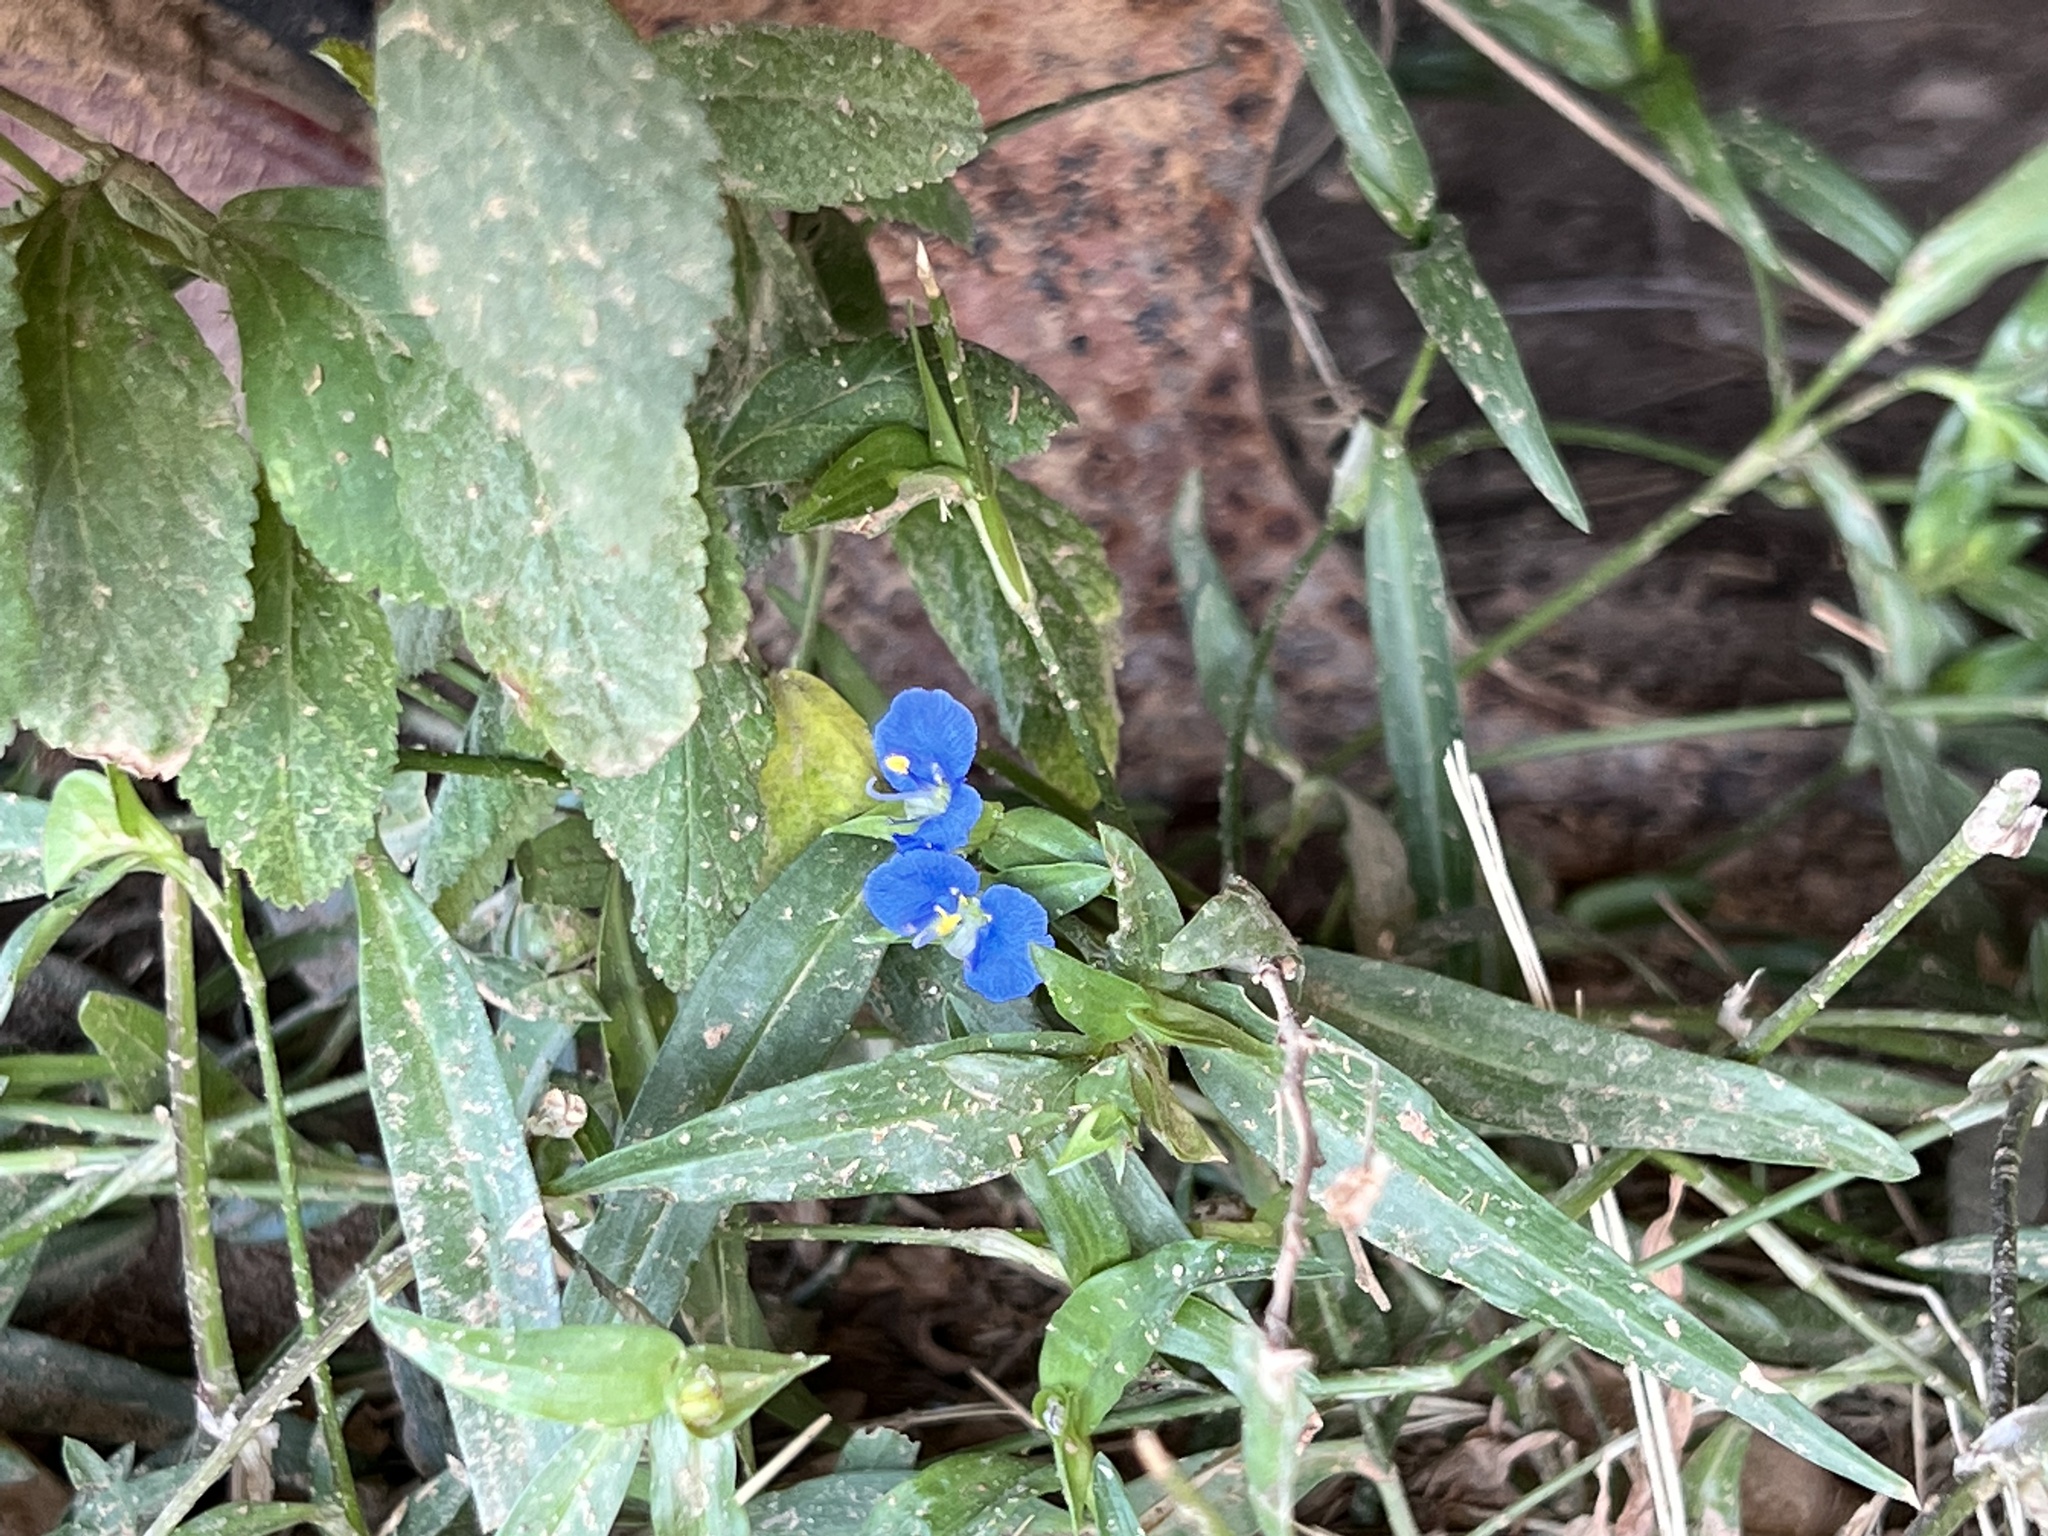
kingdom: Plantae
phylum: Tracheophyta
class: Liliopsida
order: Commelinales
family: Commelinaceae
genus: Commelina
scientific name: Commelina erecta
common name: Blousel blommetjie
